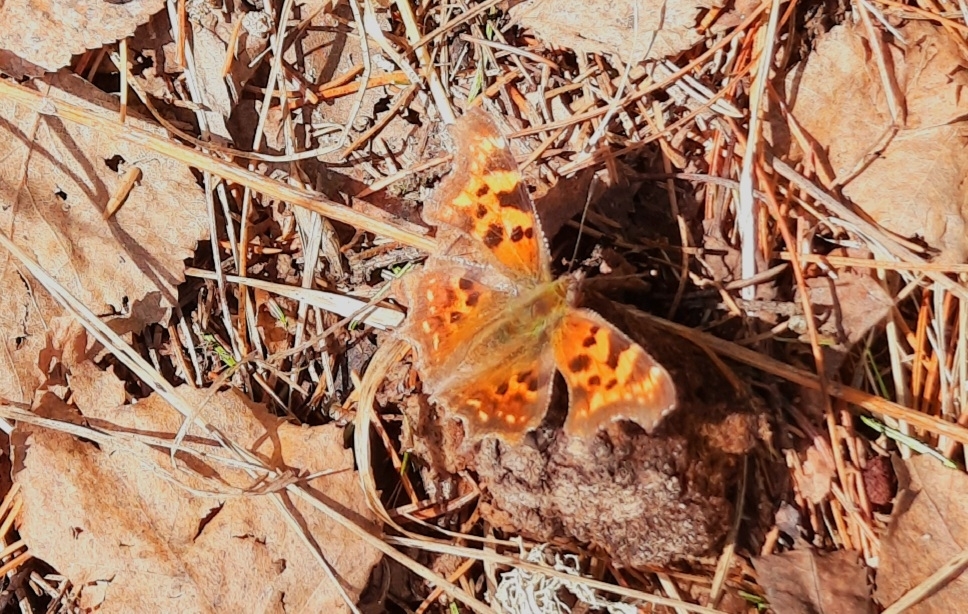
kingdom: Animalia
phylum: Arthropoda
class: Insecta
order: Lepidoptera
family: Nymphalidae
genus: Polygonia
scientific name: Polygonia c-album
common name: Comma
